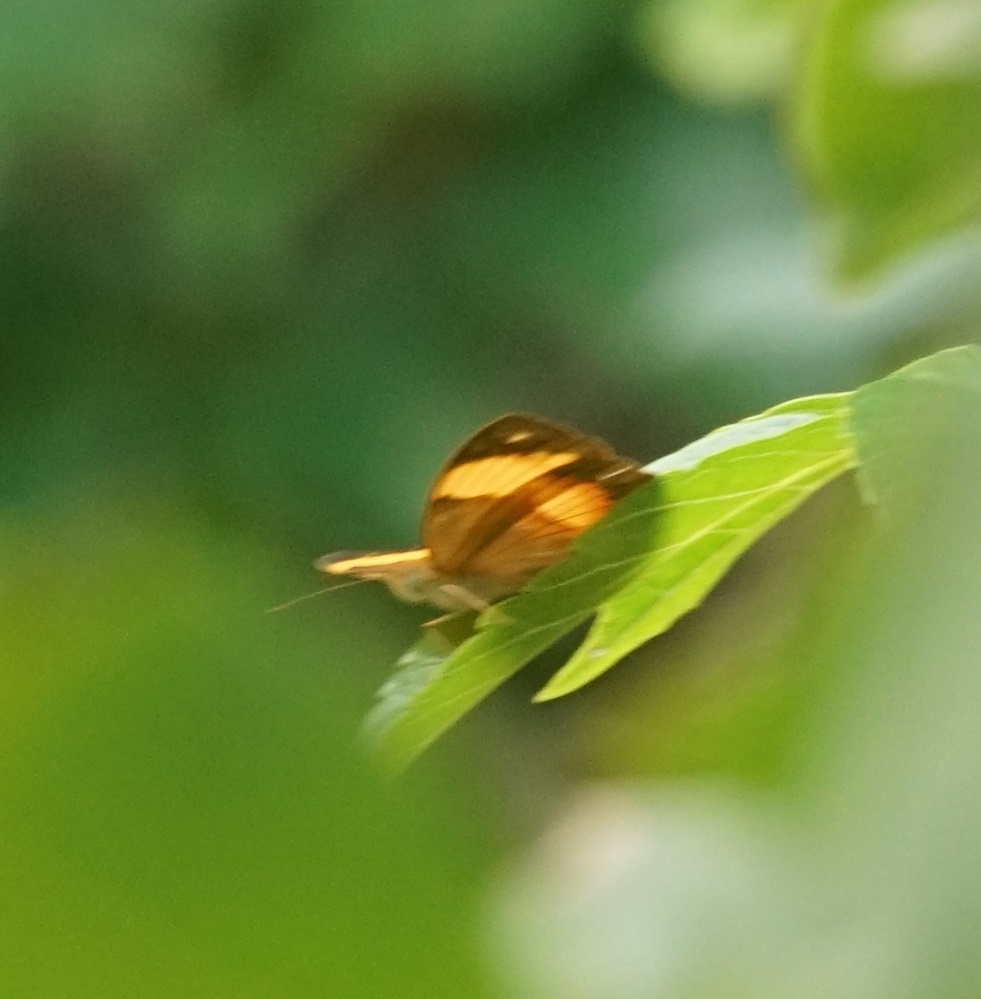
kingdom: Animalia
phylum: Arthropoda
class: Insecta
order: Lepidoptera
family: Nymphalidae
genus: Cupha
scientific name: Cupha prosope
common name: Bordered rustic
